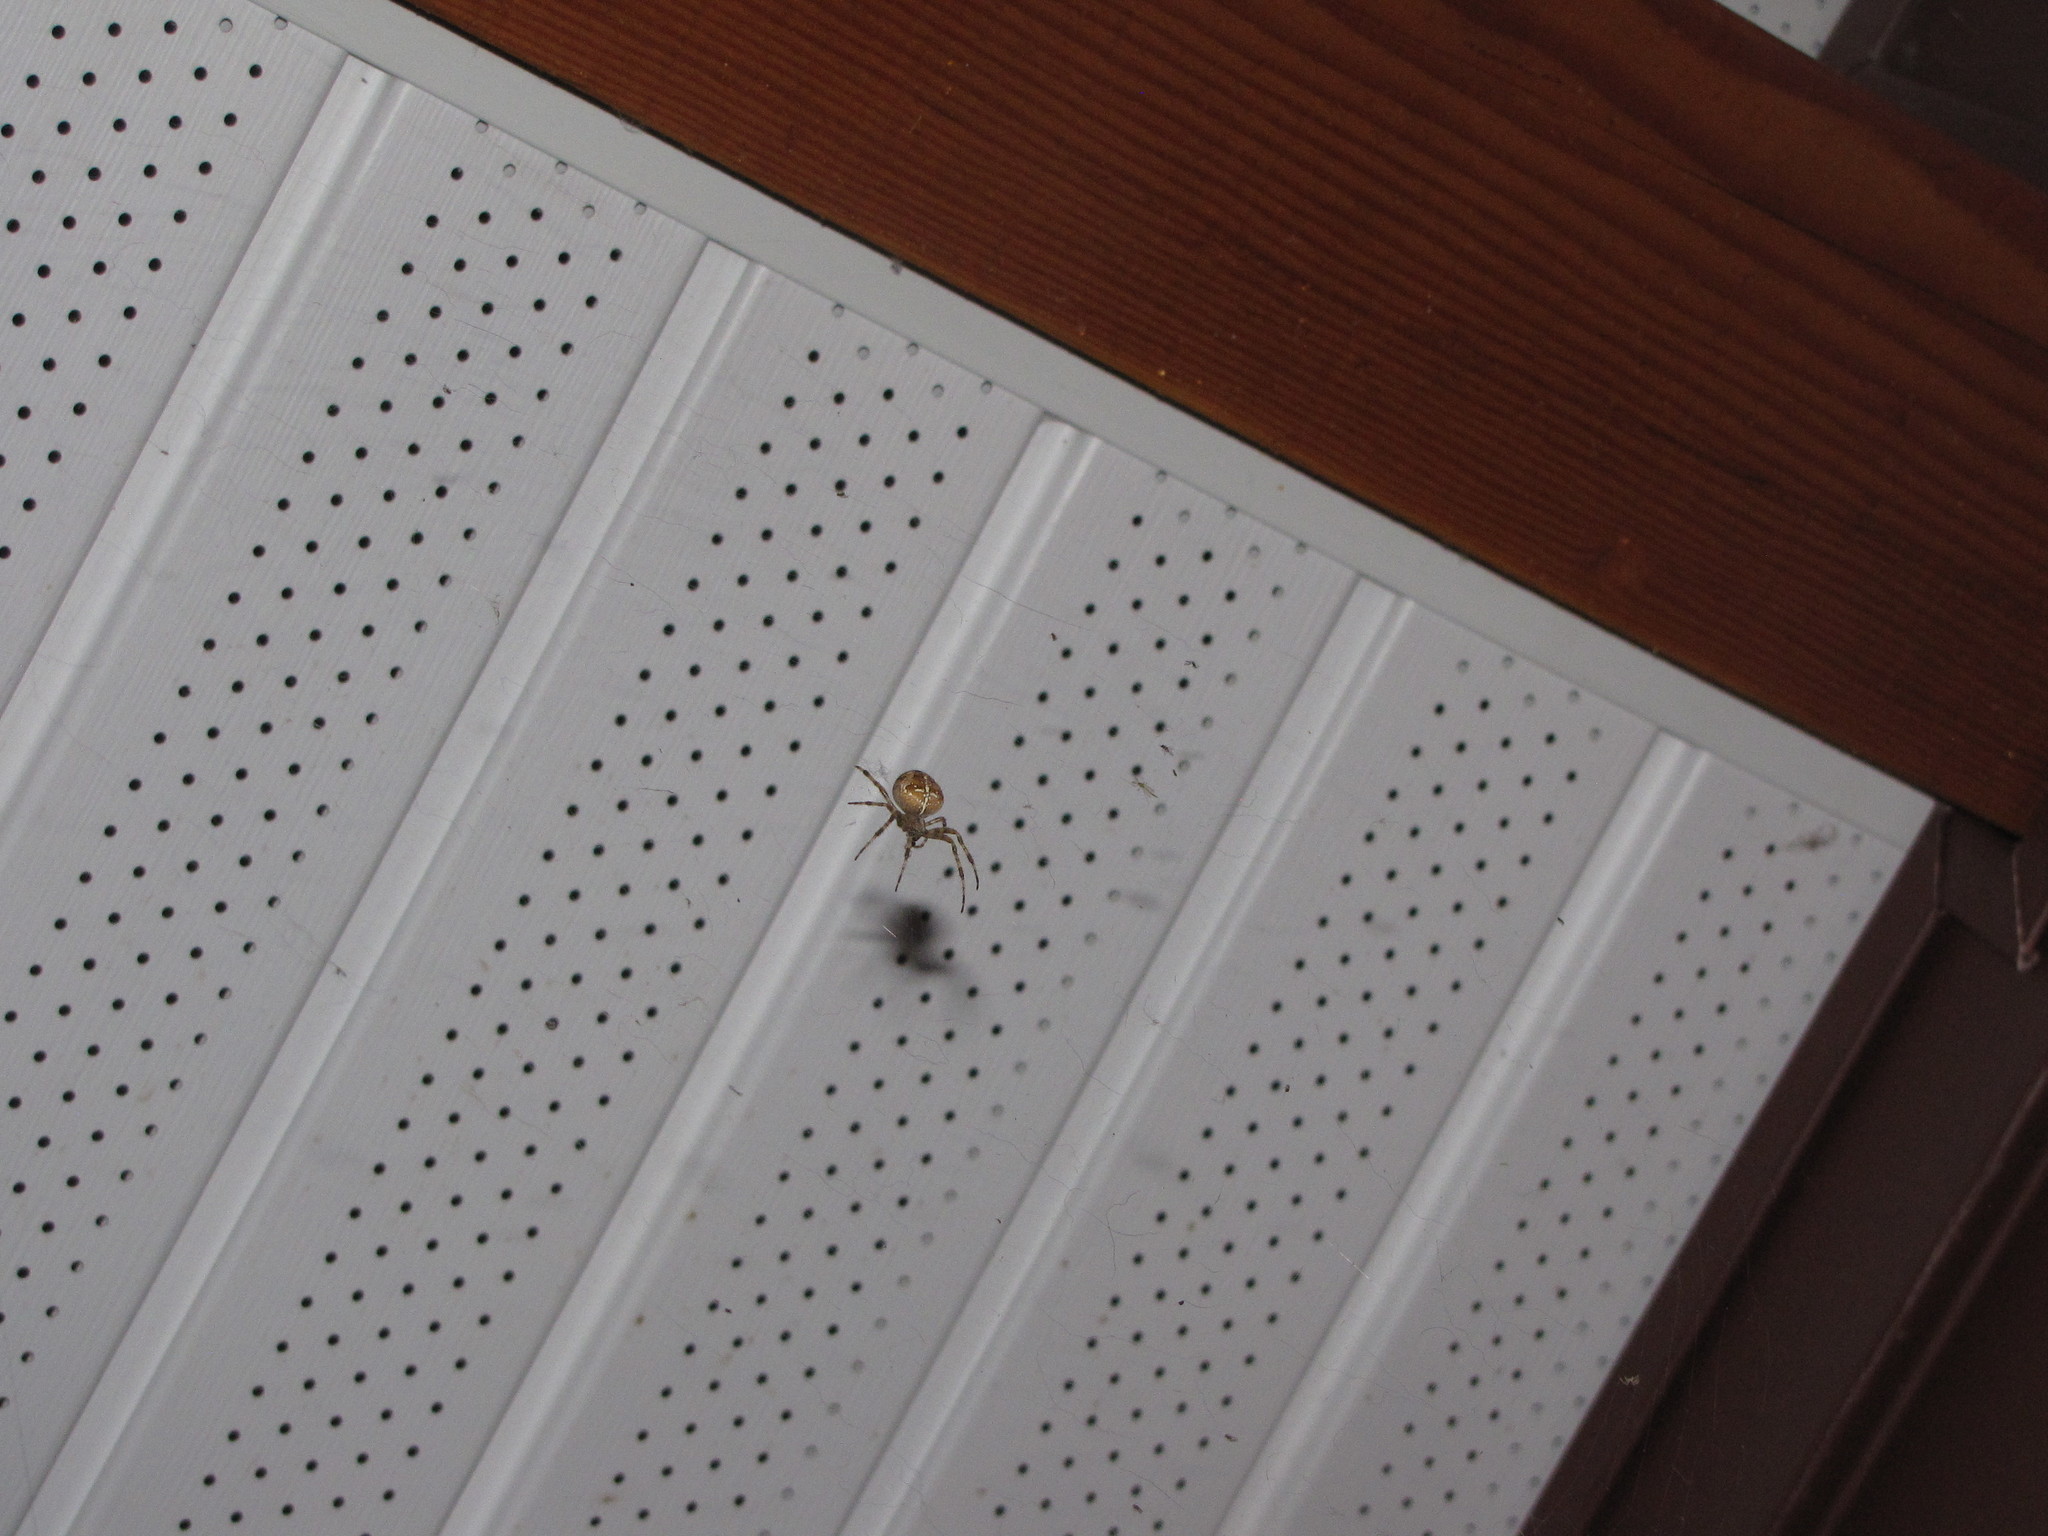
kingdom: Animalia
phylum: Arthropoda
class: Arachnida
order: Araneae
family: Araneidae
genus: Araneus
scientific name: Araneus diadematus
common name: Cross orbweaver
